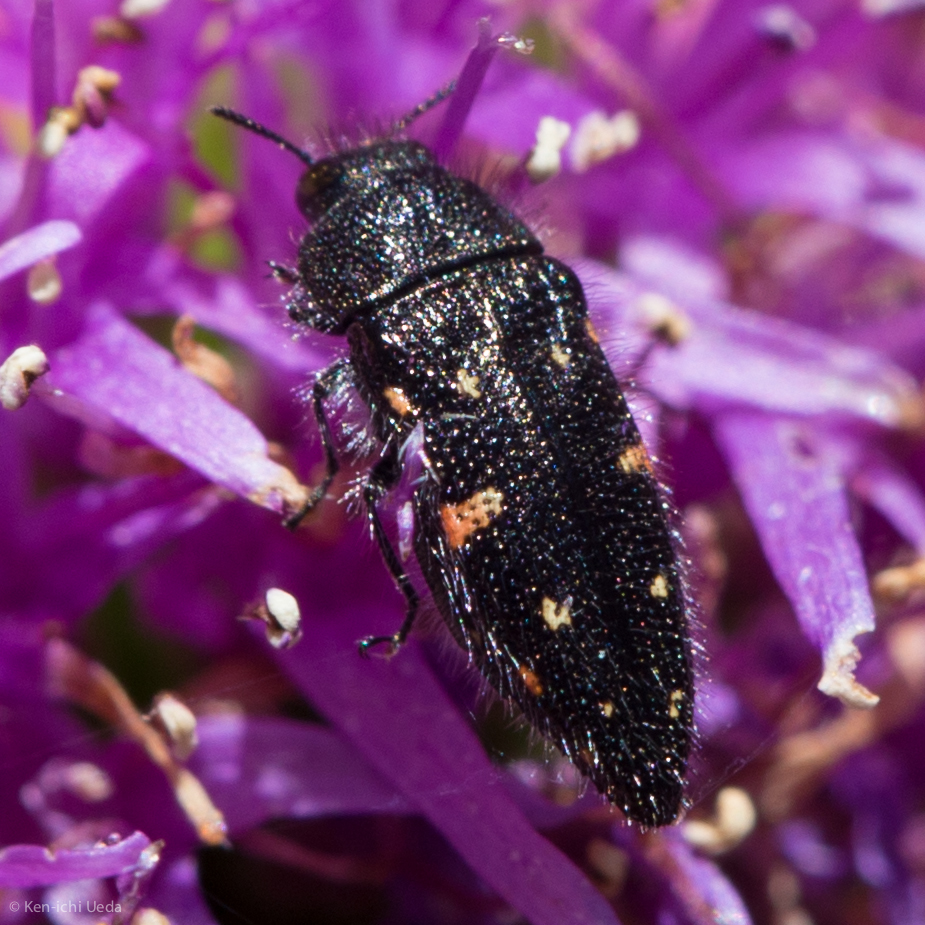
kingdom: Animalia
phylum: Arthropoda
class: Insecta
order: Coleoptera
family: Buprestidae
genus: Acmaeodera
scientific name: Acmaeodera dolorosa
